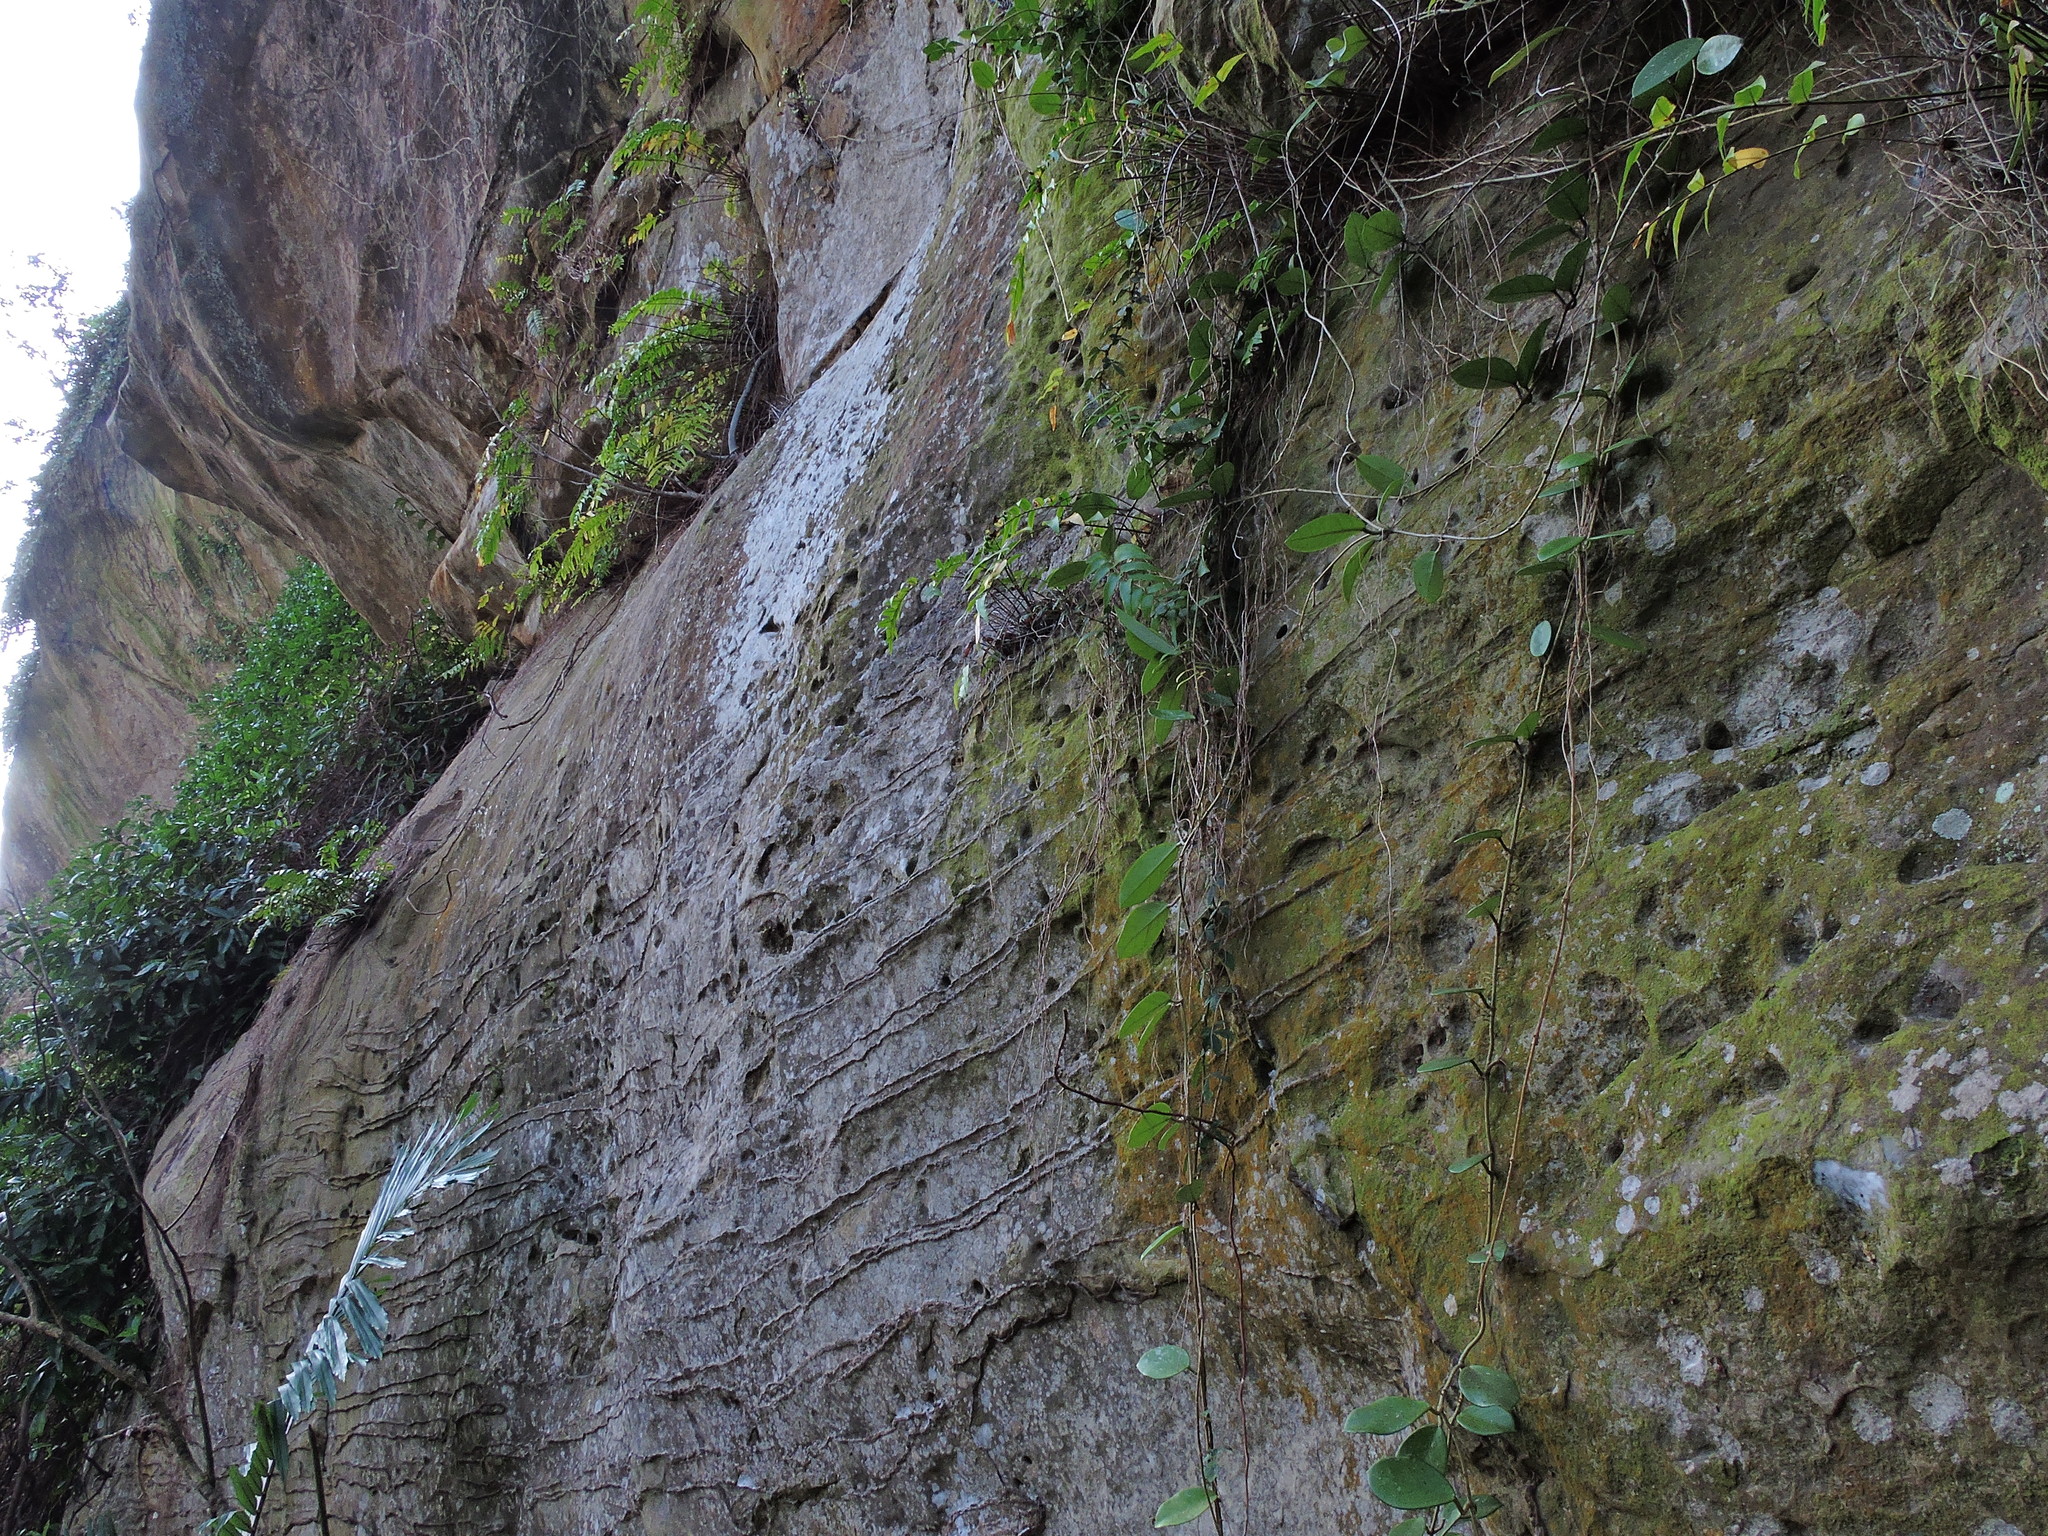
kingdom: Plantae
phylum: Tracheophyta
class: Magnoliopsida
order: Gentianales
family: Apocynaceae
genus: Hoya
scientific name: Hoya carnosa
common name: Honeyplant
